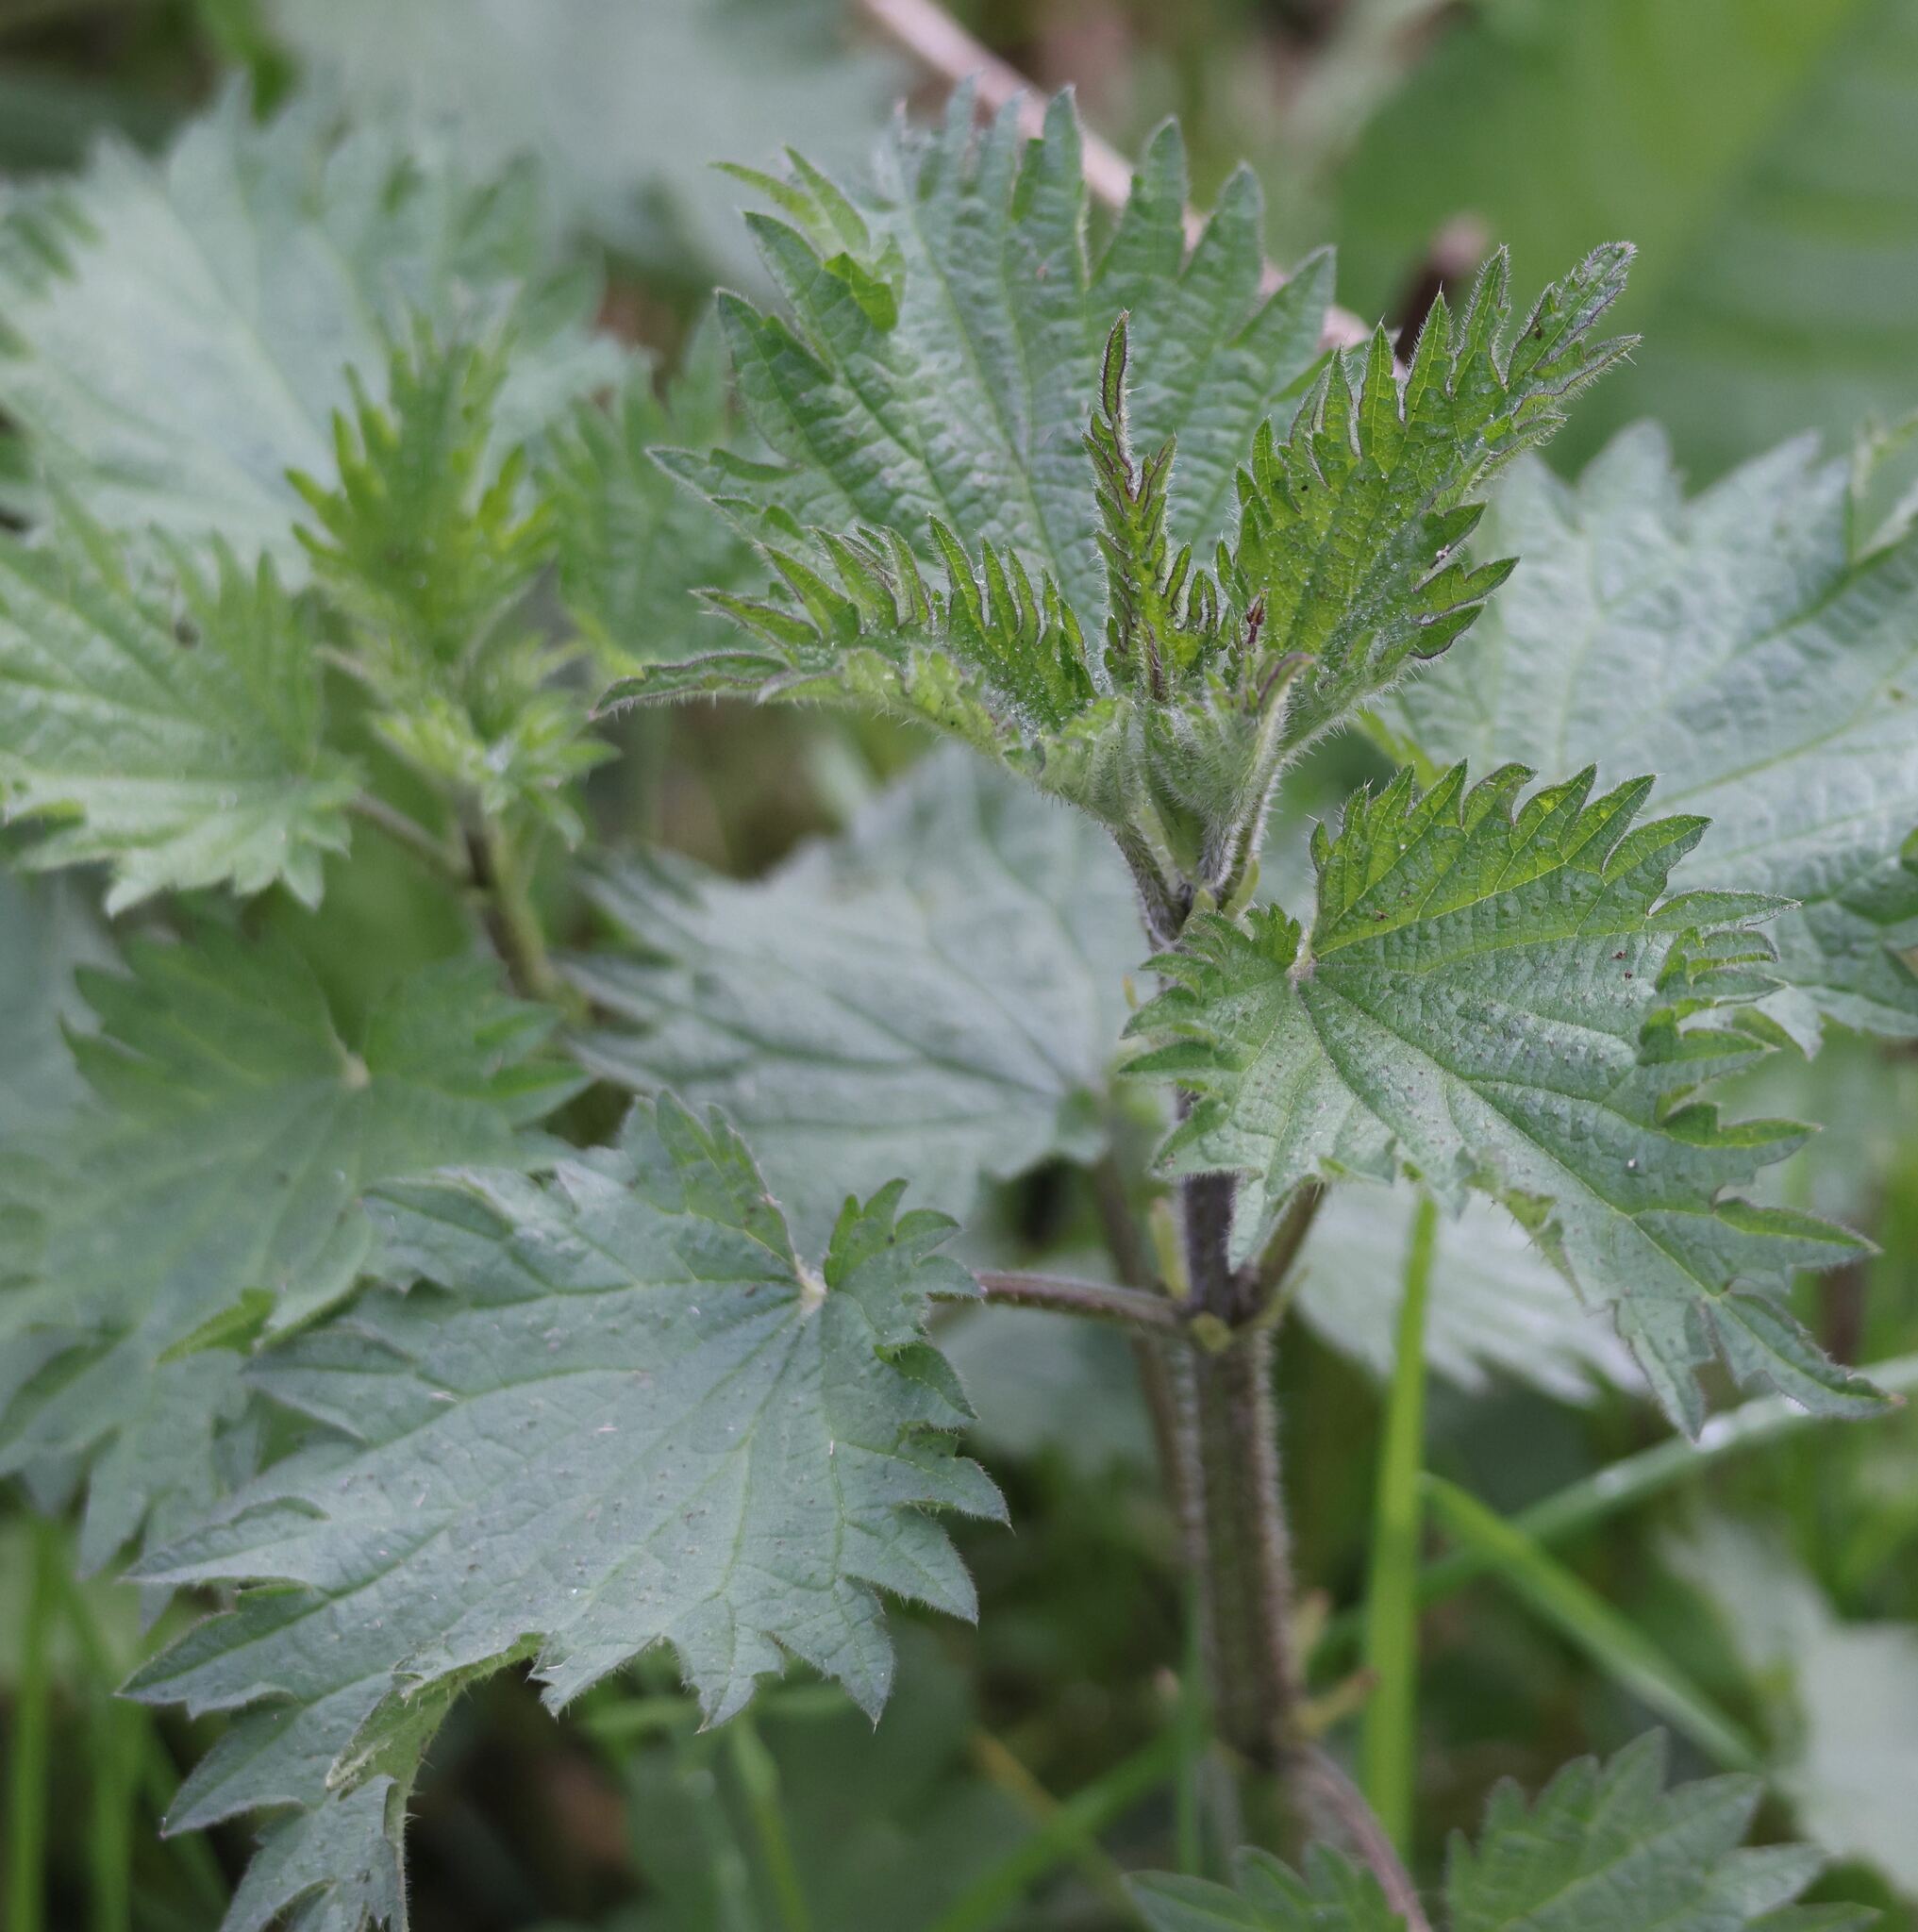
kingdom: Plantae
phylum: Tracheophyta
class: Magnoliopsida
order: Rosales
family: Urticaceae
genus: Urtica
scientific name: Urtica dioica
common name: Common nettle
